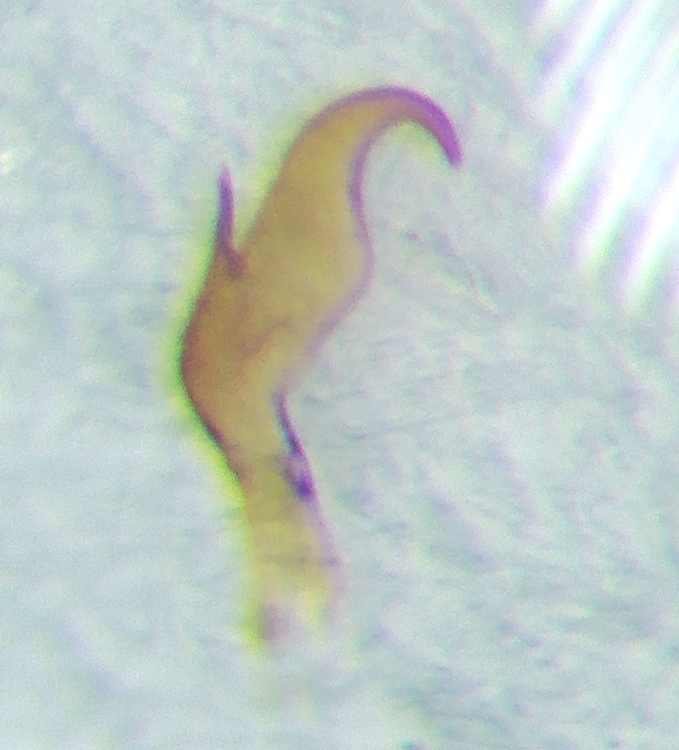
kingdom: Animalia
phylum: Arthropoda
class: Insecta
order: Hemiptera
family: Miridae
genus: Hyoidea
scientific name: Hyoidea kerzhneri
